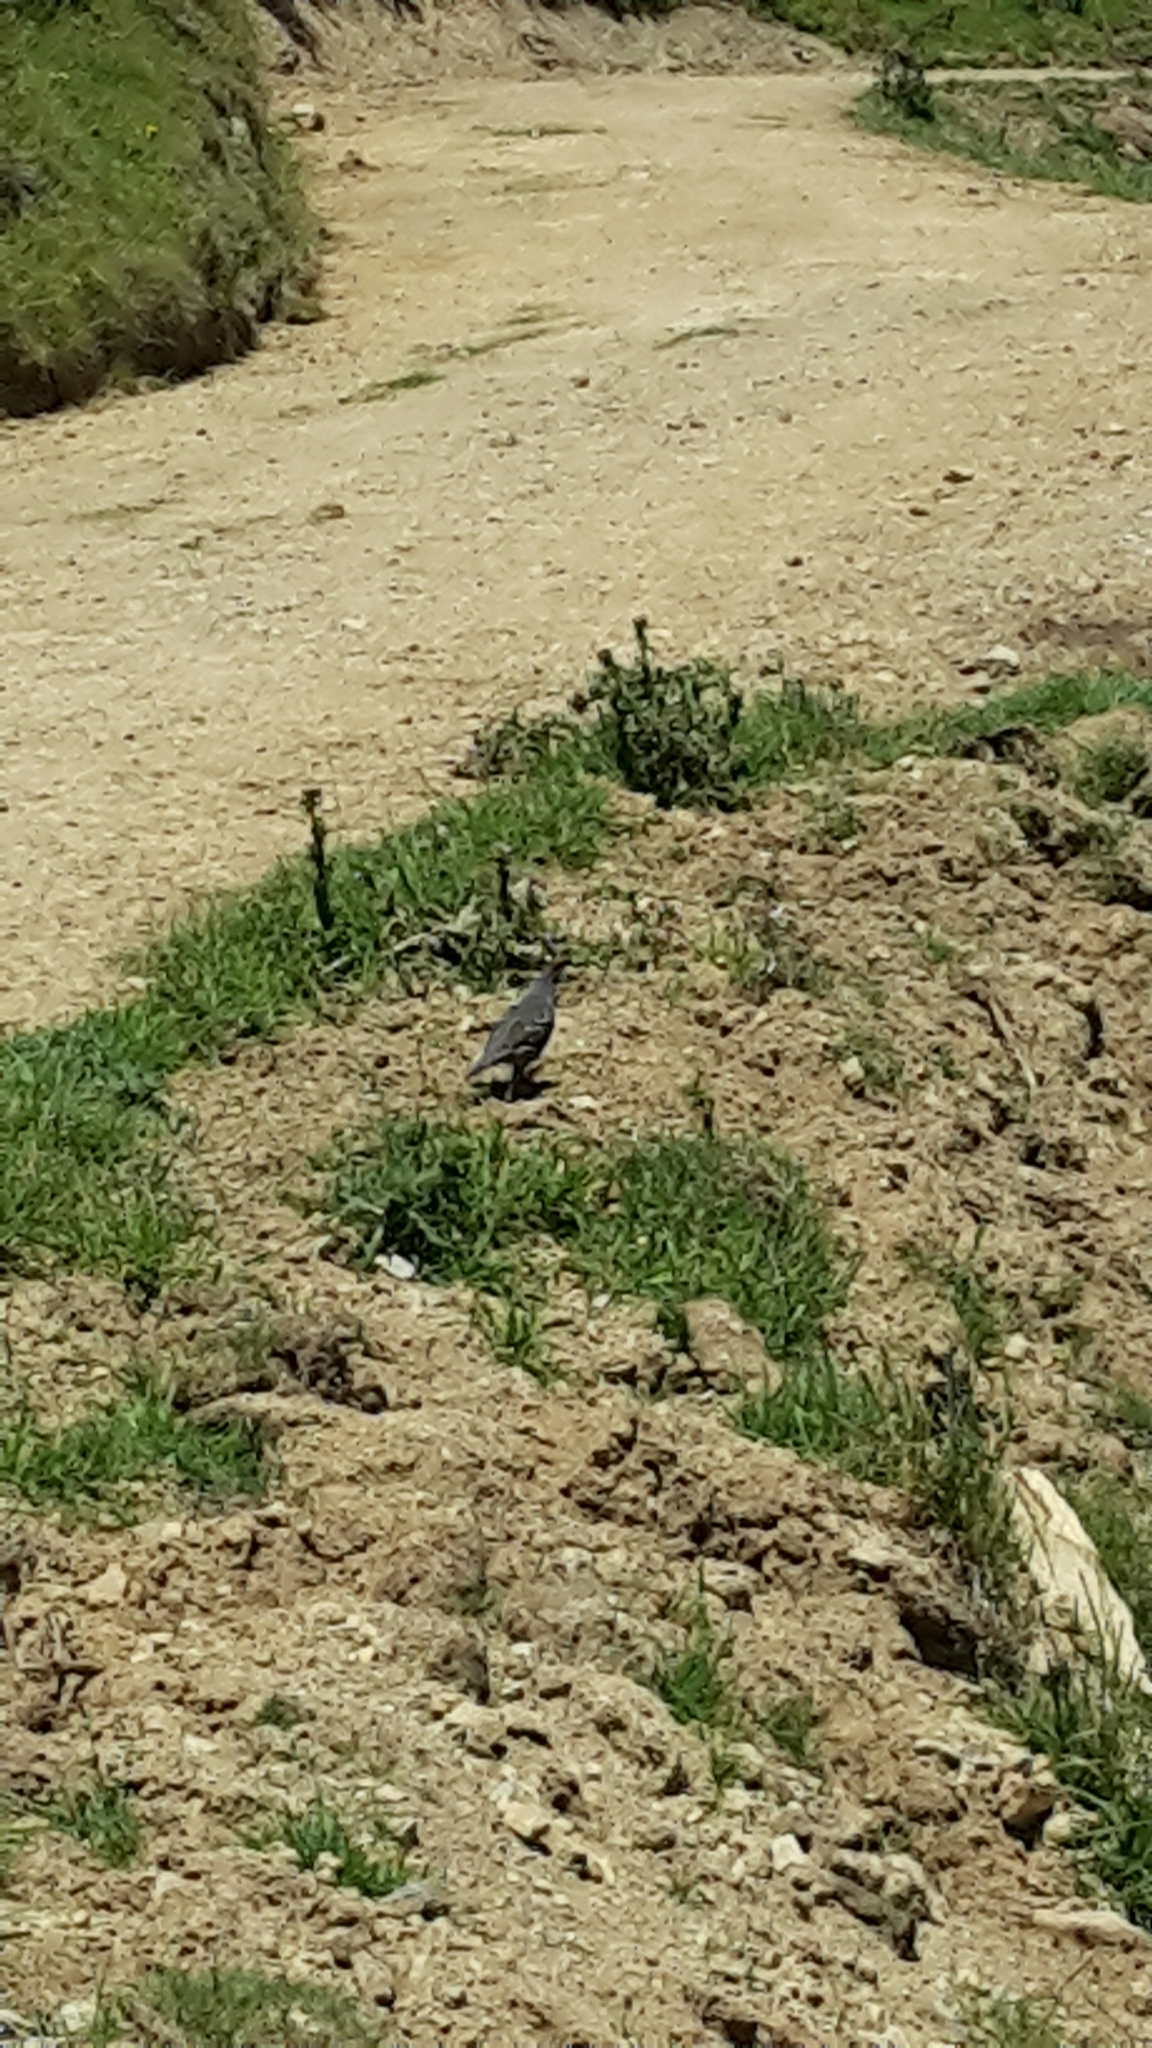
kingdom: Animalia
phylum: Chordata
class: Aves
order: Galliformes
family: Odontophoridae
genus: Callipepla
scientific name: Callipepla californica
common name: California quail
